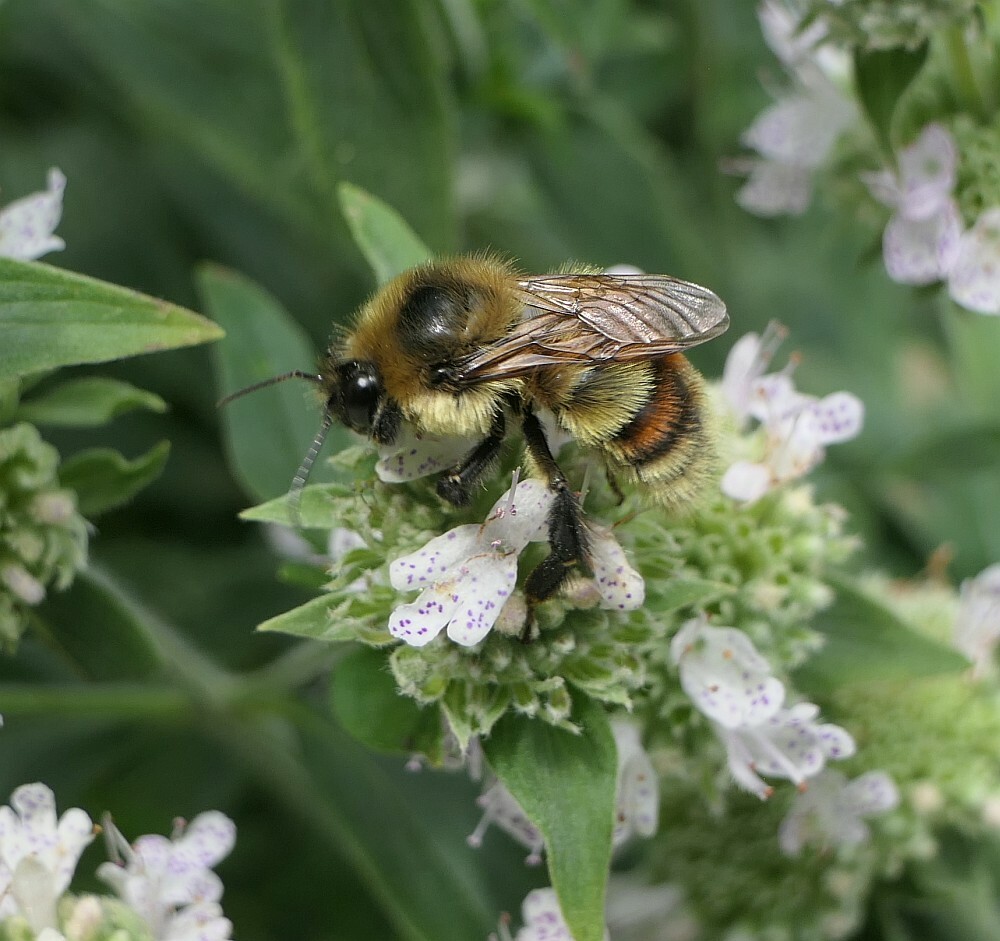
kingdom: Animalia
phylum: Arthropoda
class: Insecta
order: Hymenoptera
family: Apidae
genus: Bombus
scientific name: Bombus rufocinctus
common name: Red-belted bumble bee
